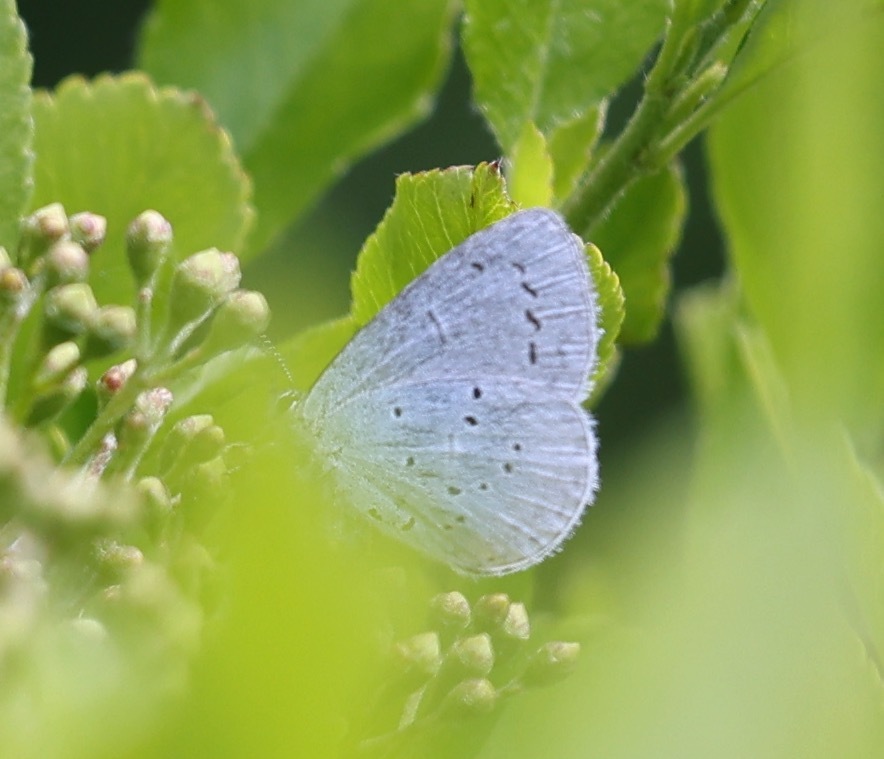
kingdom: Animalia
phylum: Arthropoda
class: Insecta
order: Lepidoptera
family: Lycaenidae
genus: Celastrina
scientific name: Celastrina argiolus
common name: Holly blue
